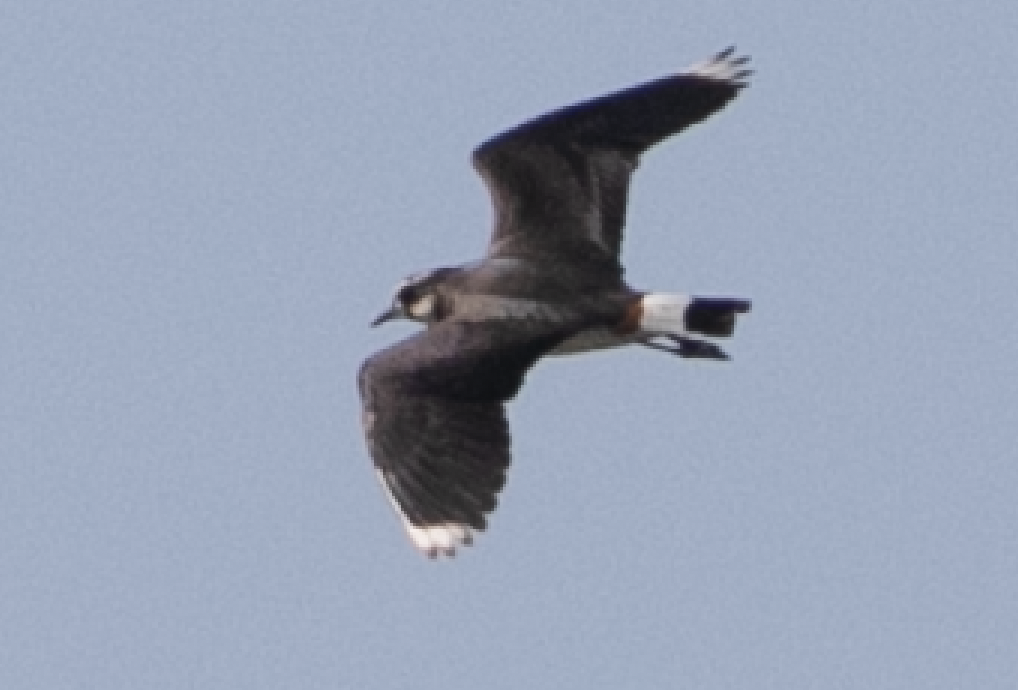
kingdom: Animalia
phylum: Chordata
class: Aves
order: Charadriiformes
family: Charadriidae
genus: Vanellus
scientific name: Vanellus vanellus
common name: Northern lapwing
